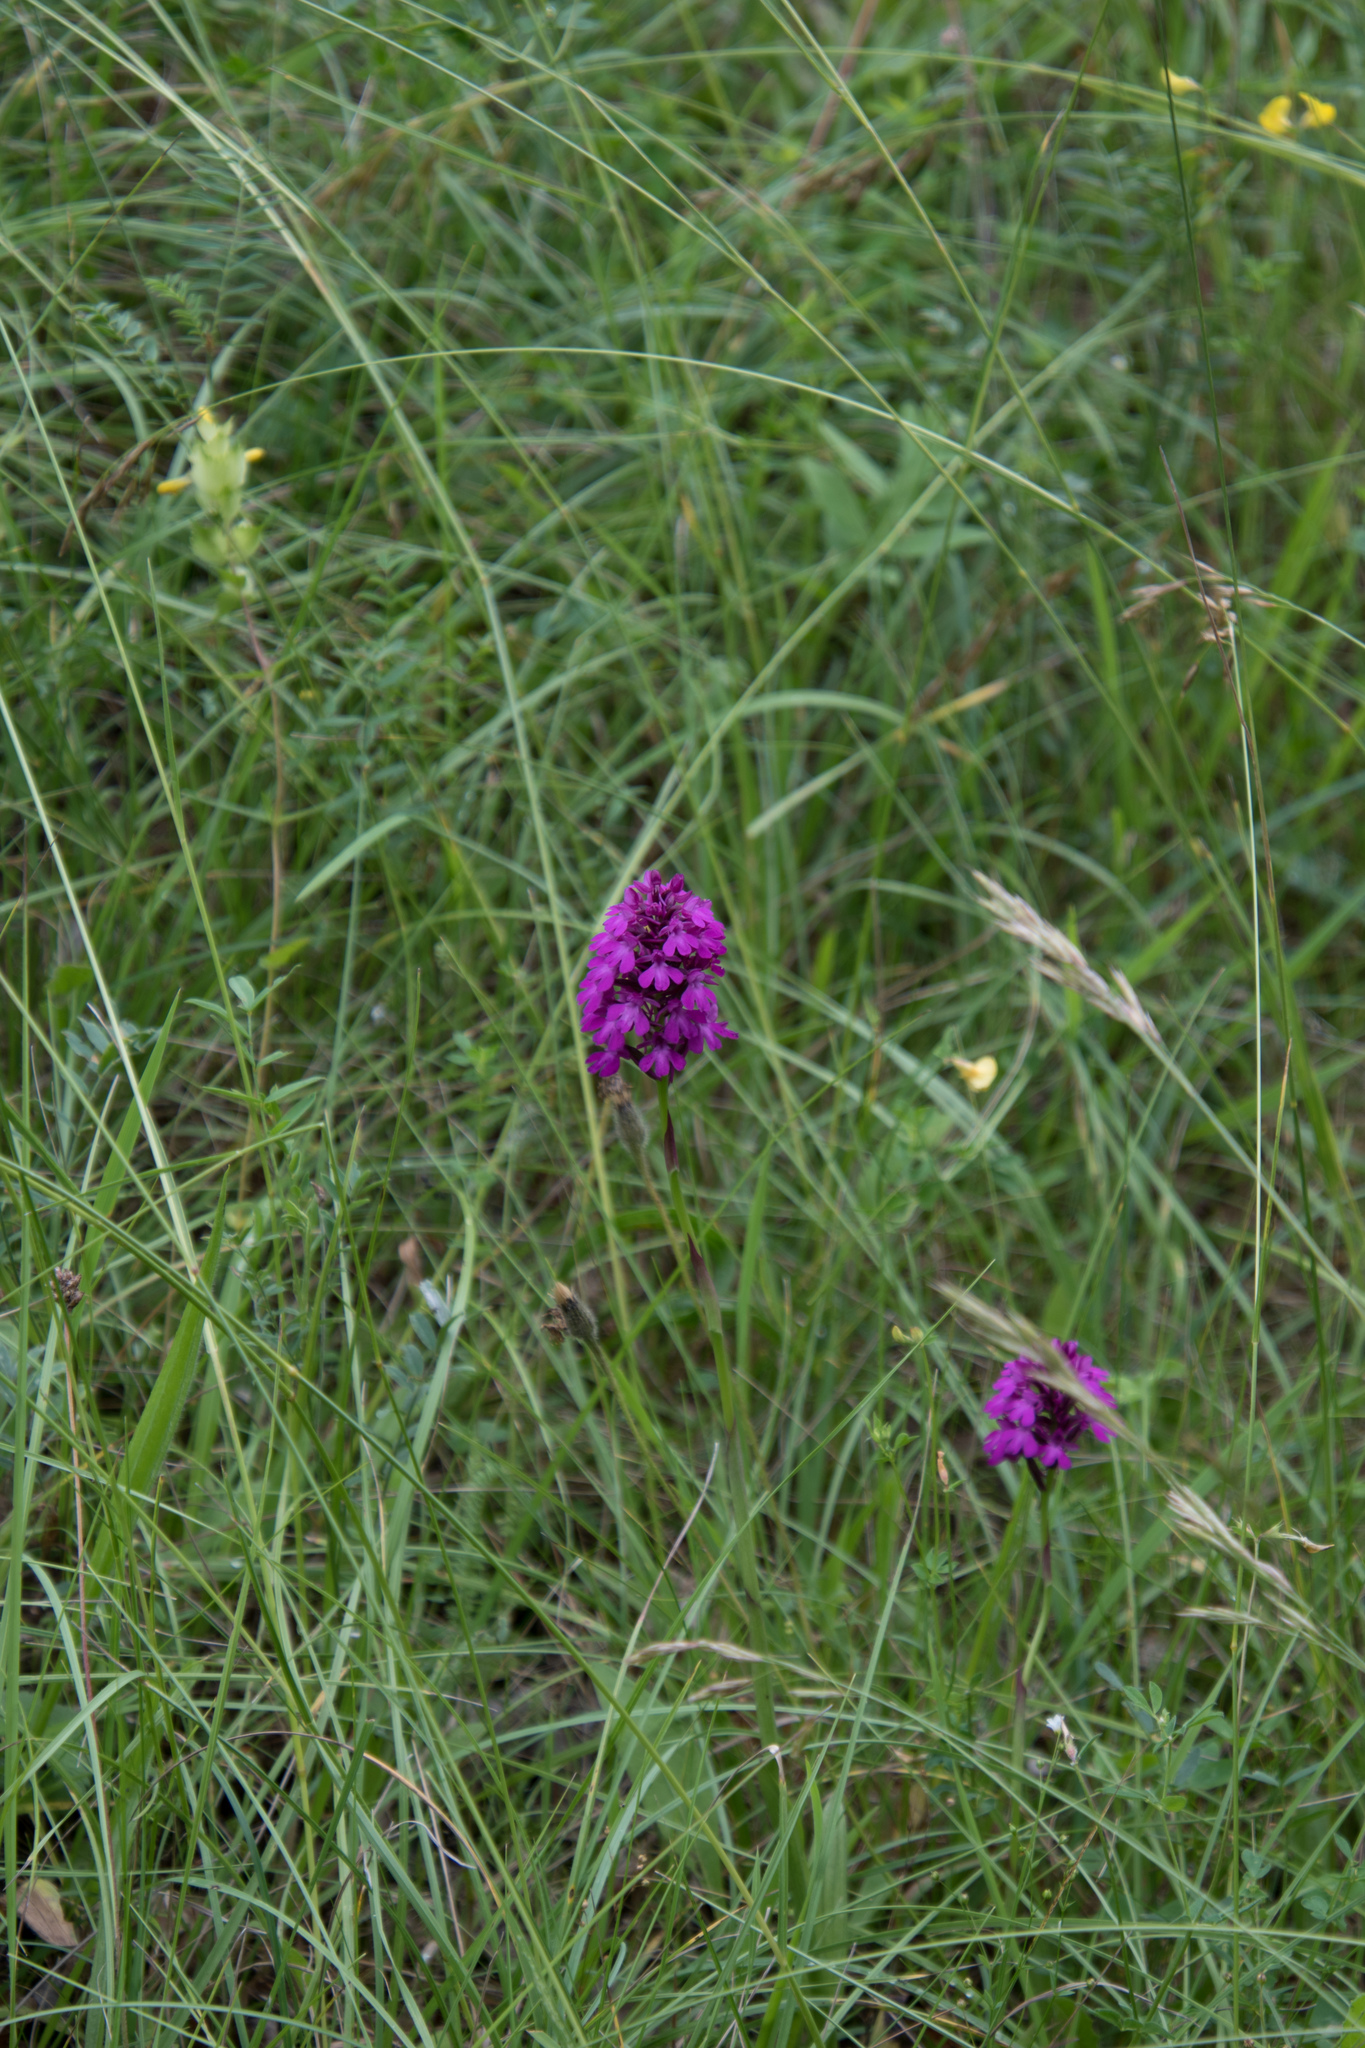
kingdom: Plantae
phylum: Tracheophyta
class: Liliopsida
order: Asparagales
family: Orchidaceae
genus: Anacamptis
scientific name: Anacamptis pyramidalis
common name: Pyramidal orchid
